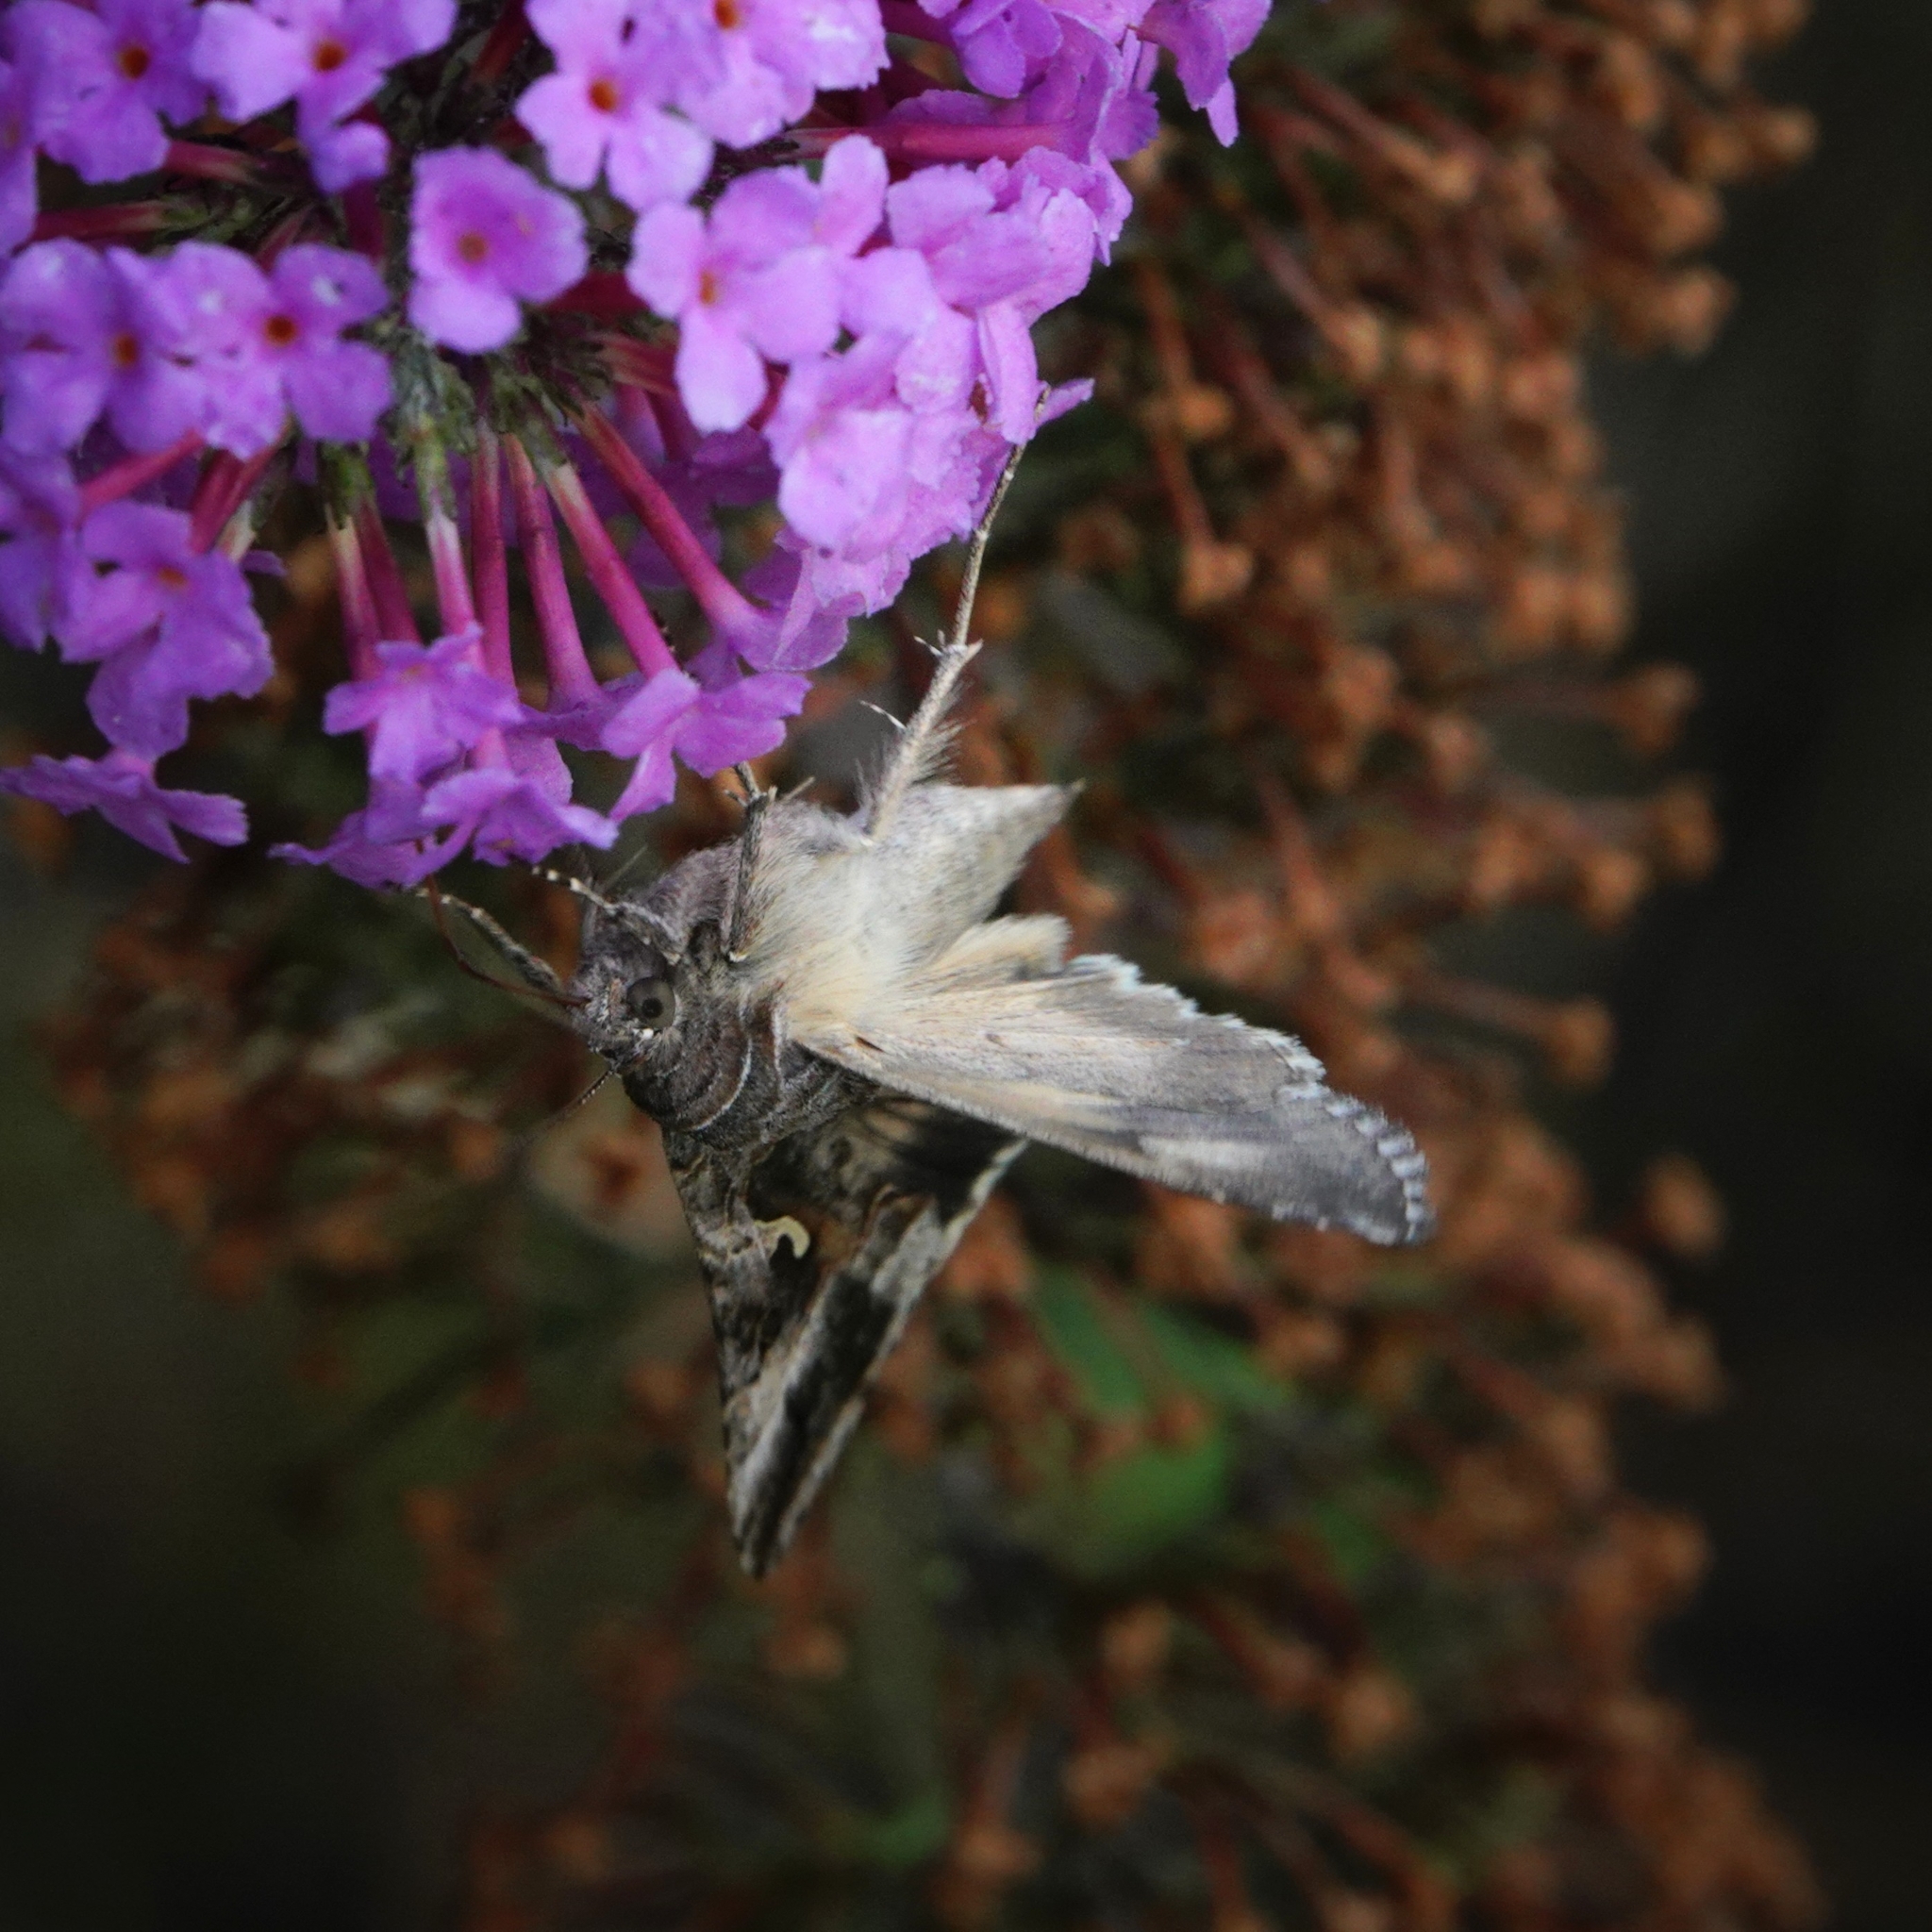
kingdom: Animalia
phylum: Arthropoda
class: Insecta
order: Lepidoptera
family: Noctuidae
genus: Autographa
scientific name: Autographa gamma
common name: Silver y
